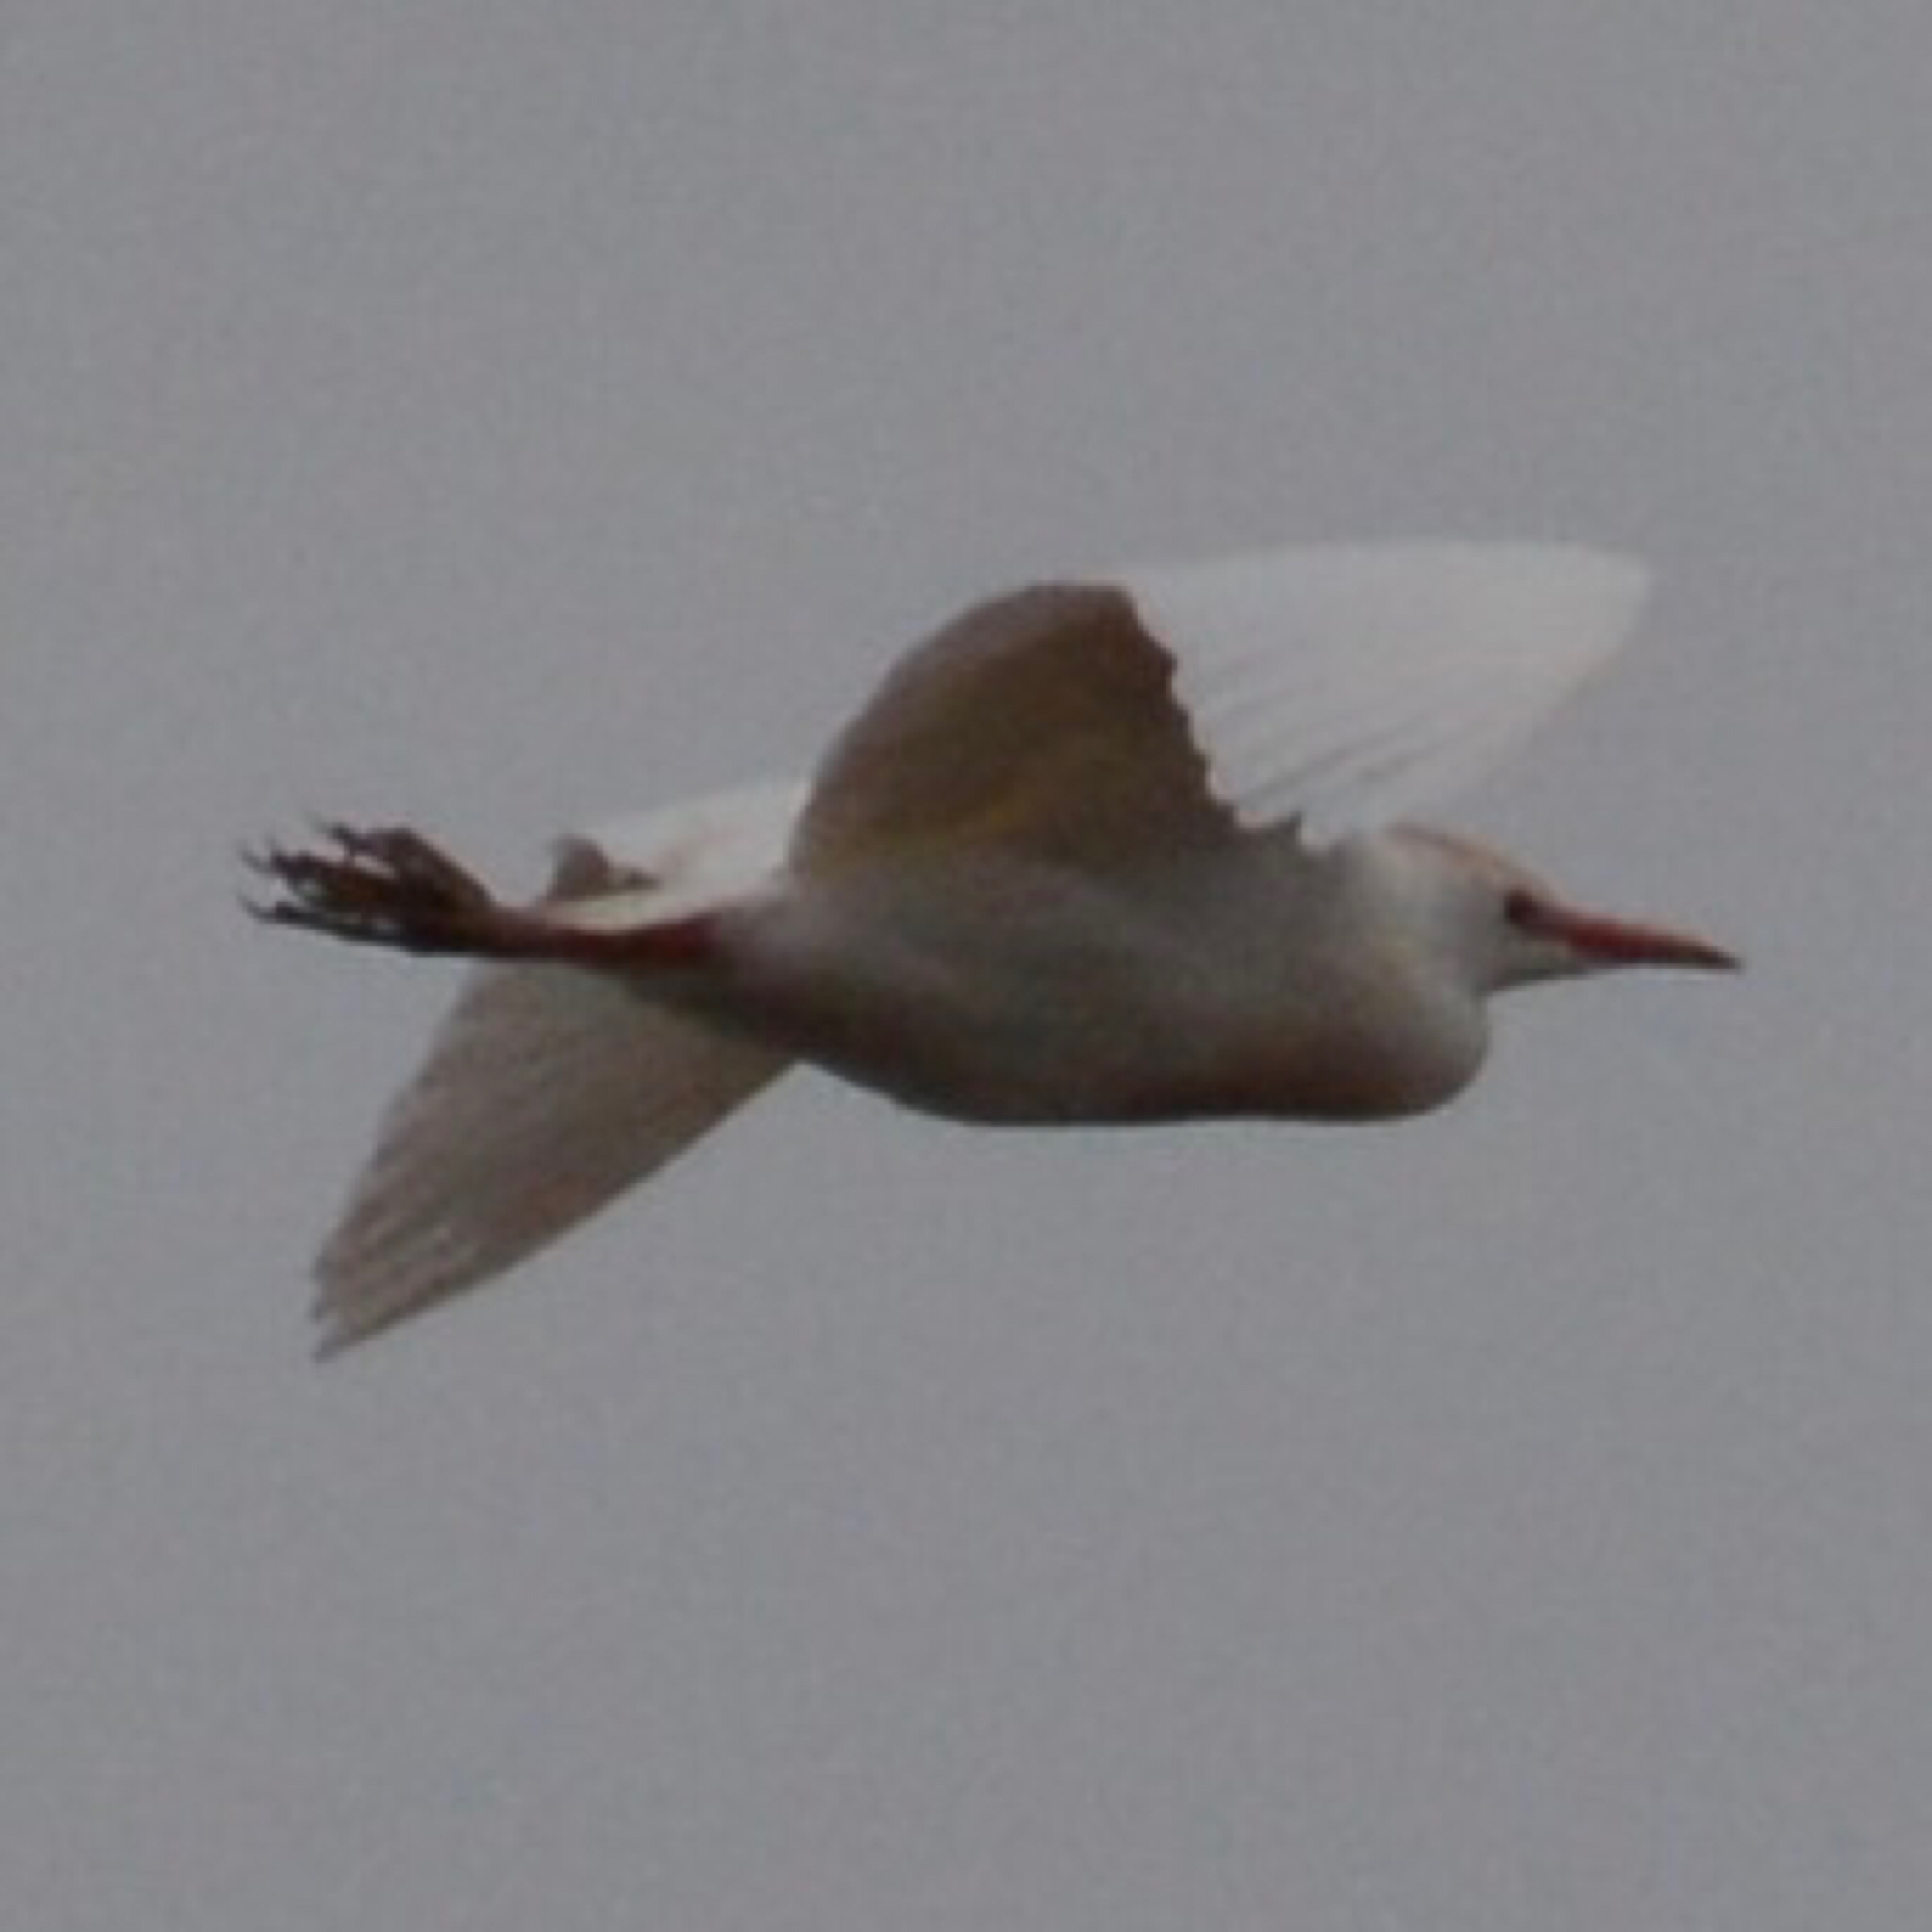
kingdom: Animalia
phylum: Chordata
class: Aves
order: Pelecaniformes
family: Ardeidae
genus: Bubulcus
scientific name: Bubulcus ibis
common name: Cattle egret
